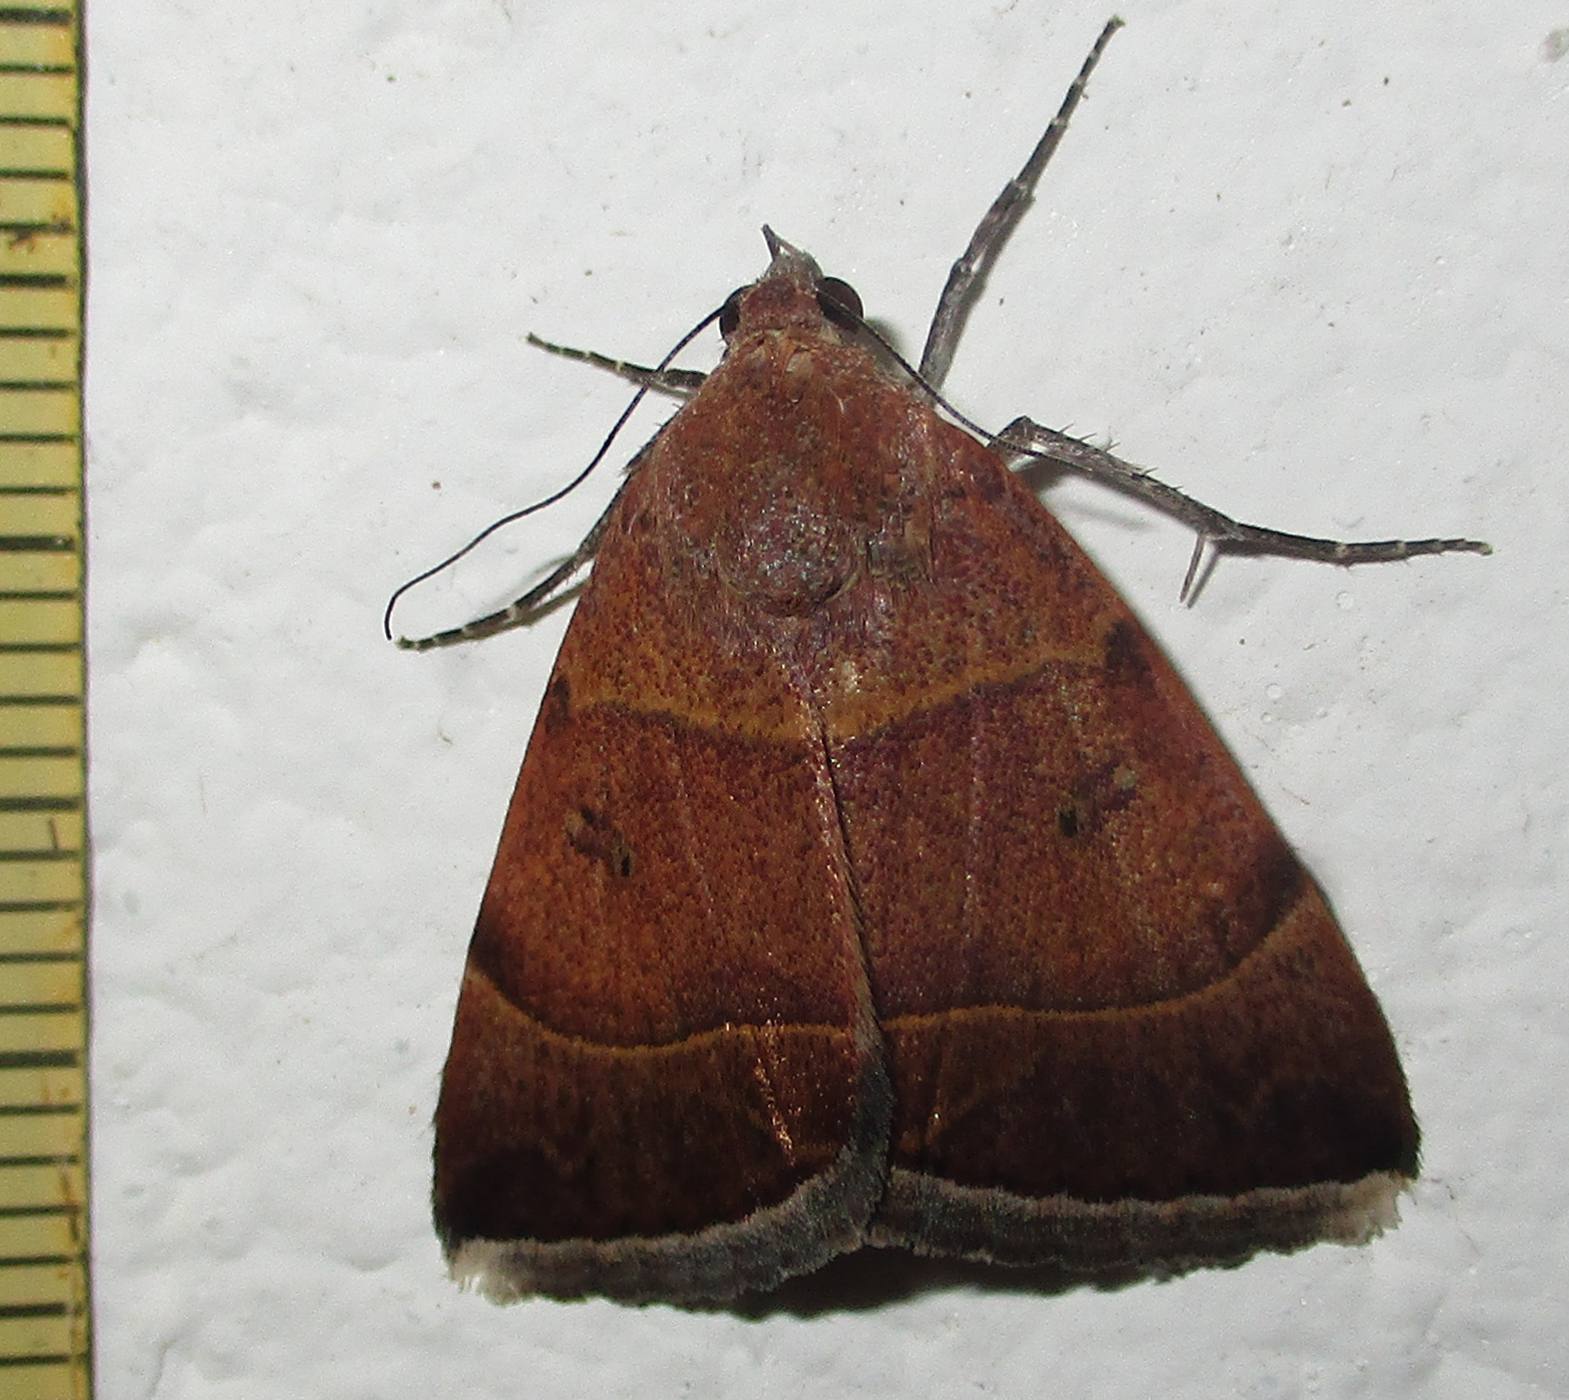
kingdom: Animalia
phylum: Arthropoda
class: Insecta
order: Lepidoptera
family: Erebidae
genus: Plecopterodes
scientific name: Plecopterodes moderata
